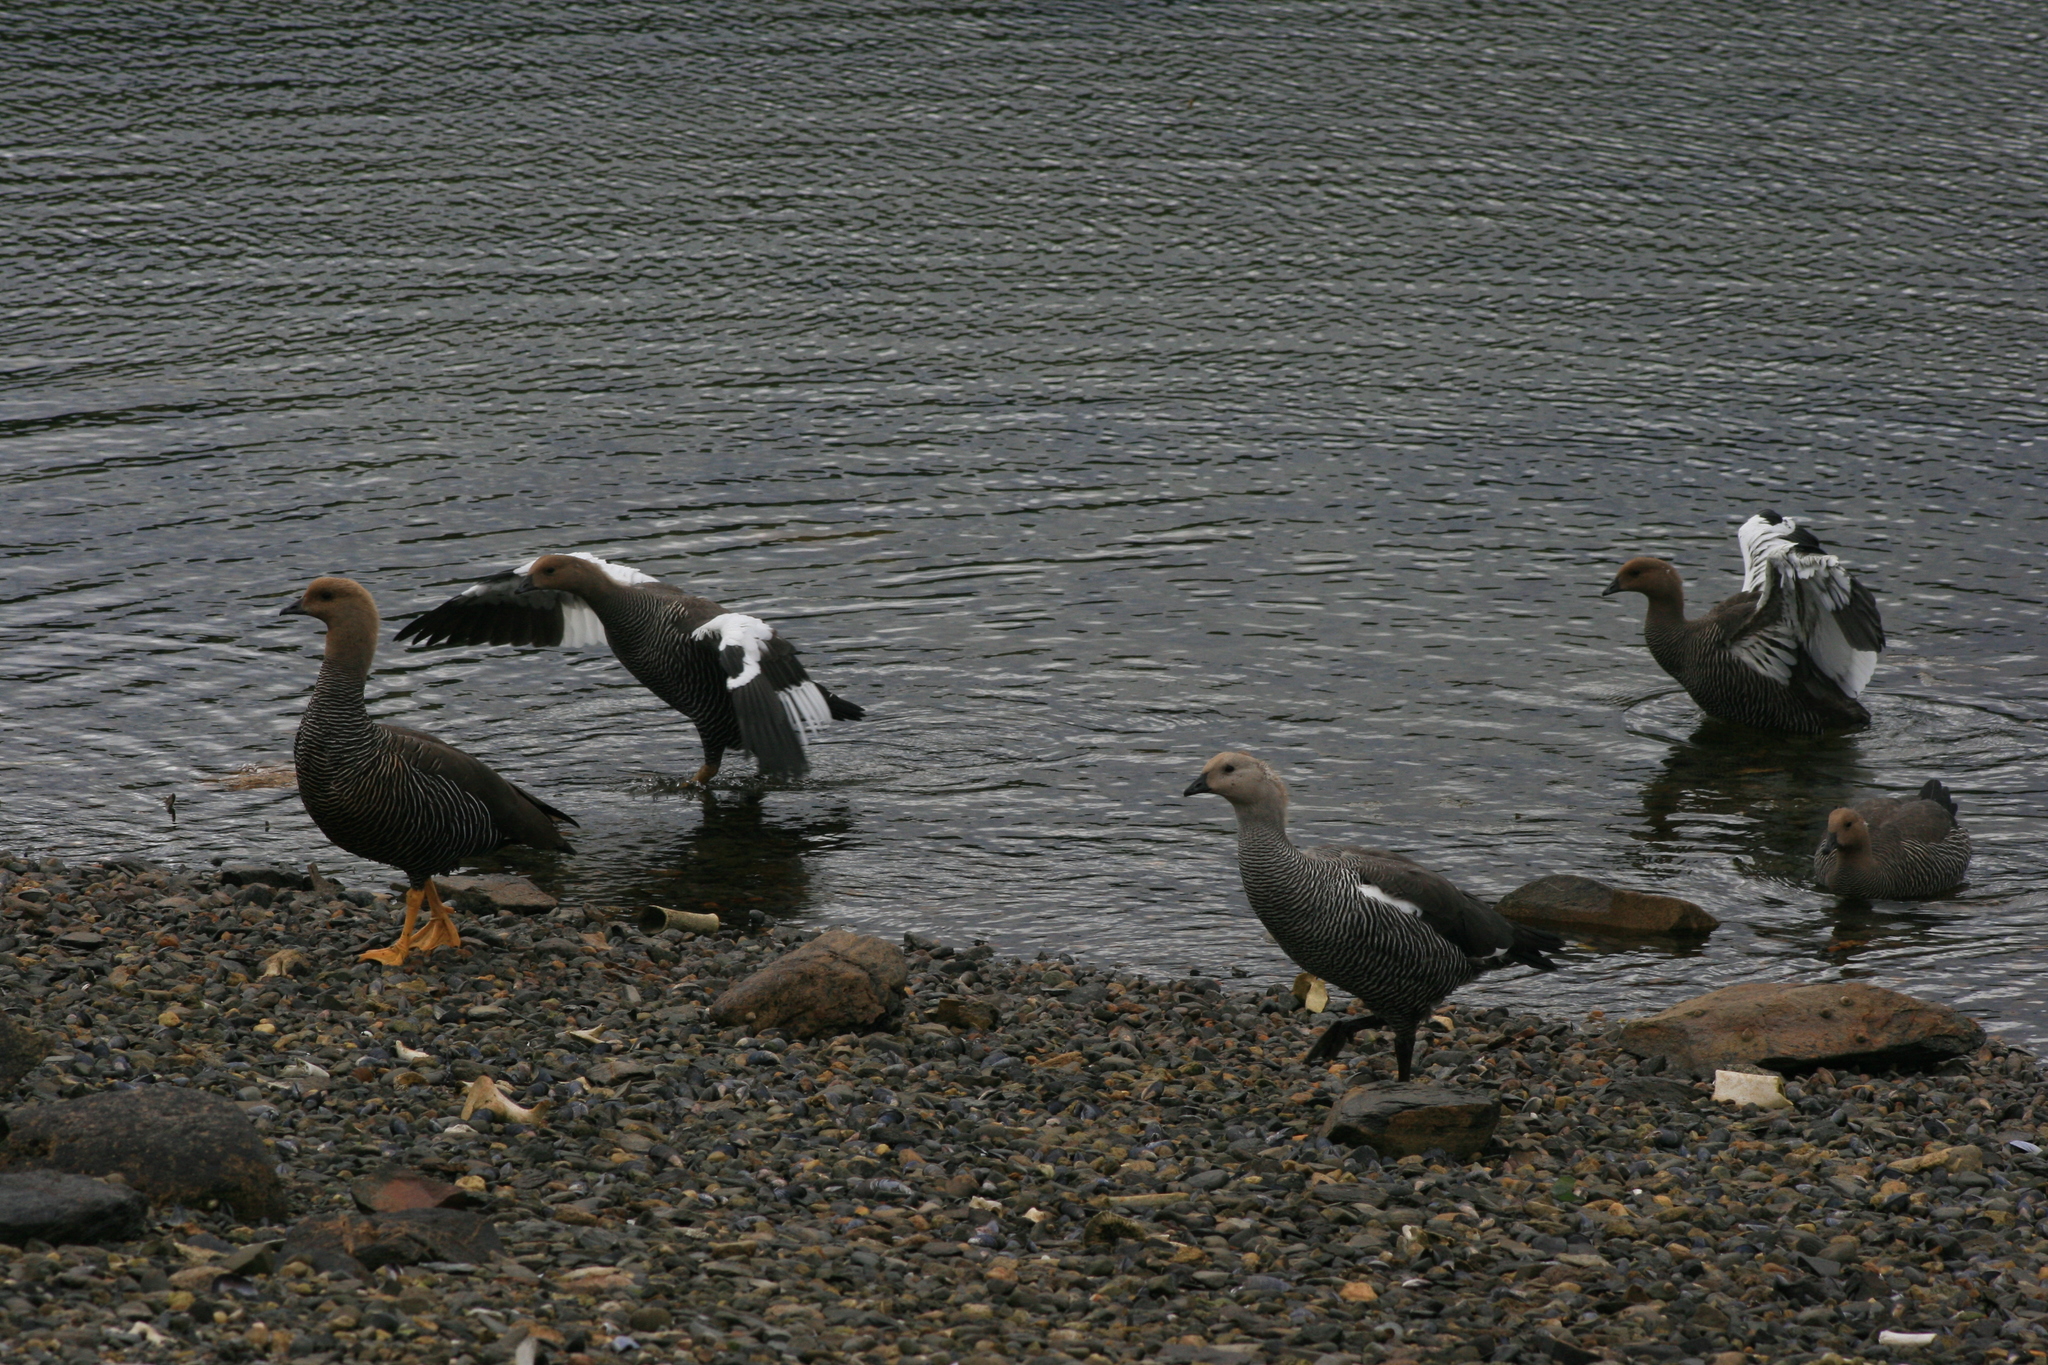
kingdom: Animalia
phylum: Chordata
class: Aves
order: Anseriformes
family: Anatidae
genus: Chloephaga
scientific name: Chloephaga picta
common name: Upland goose
